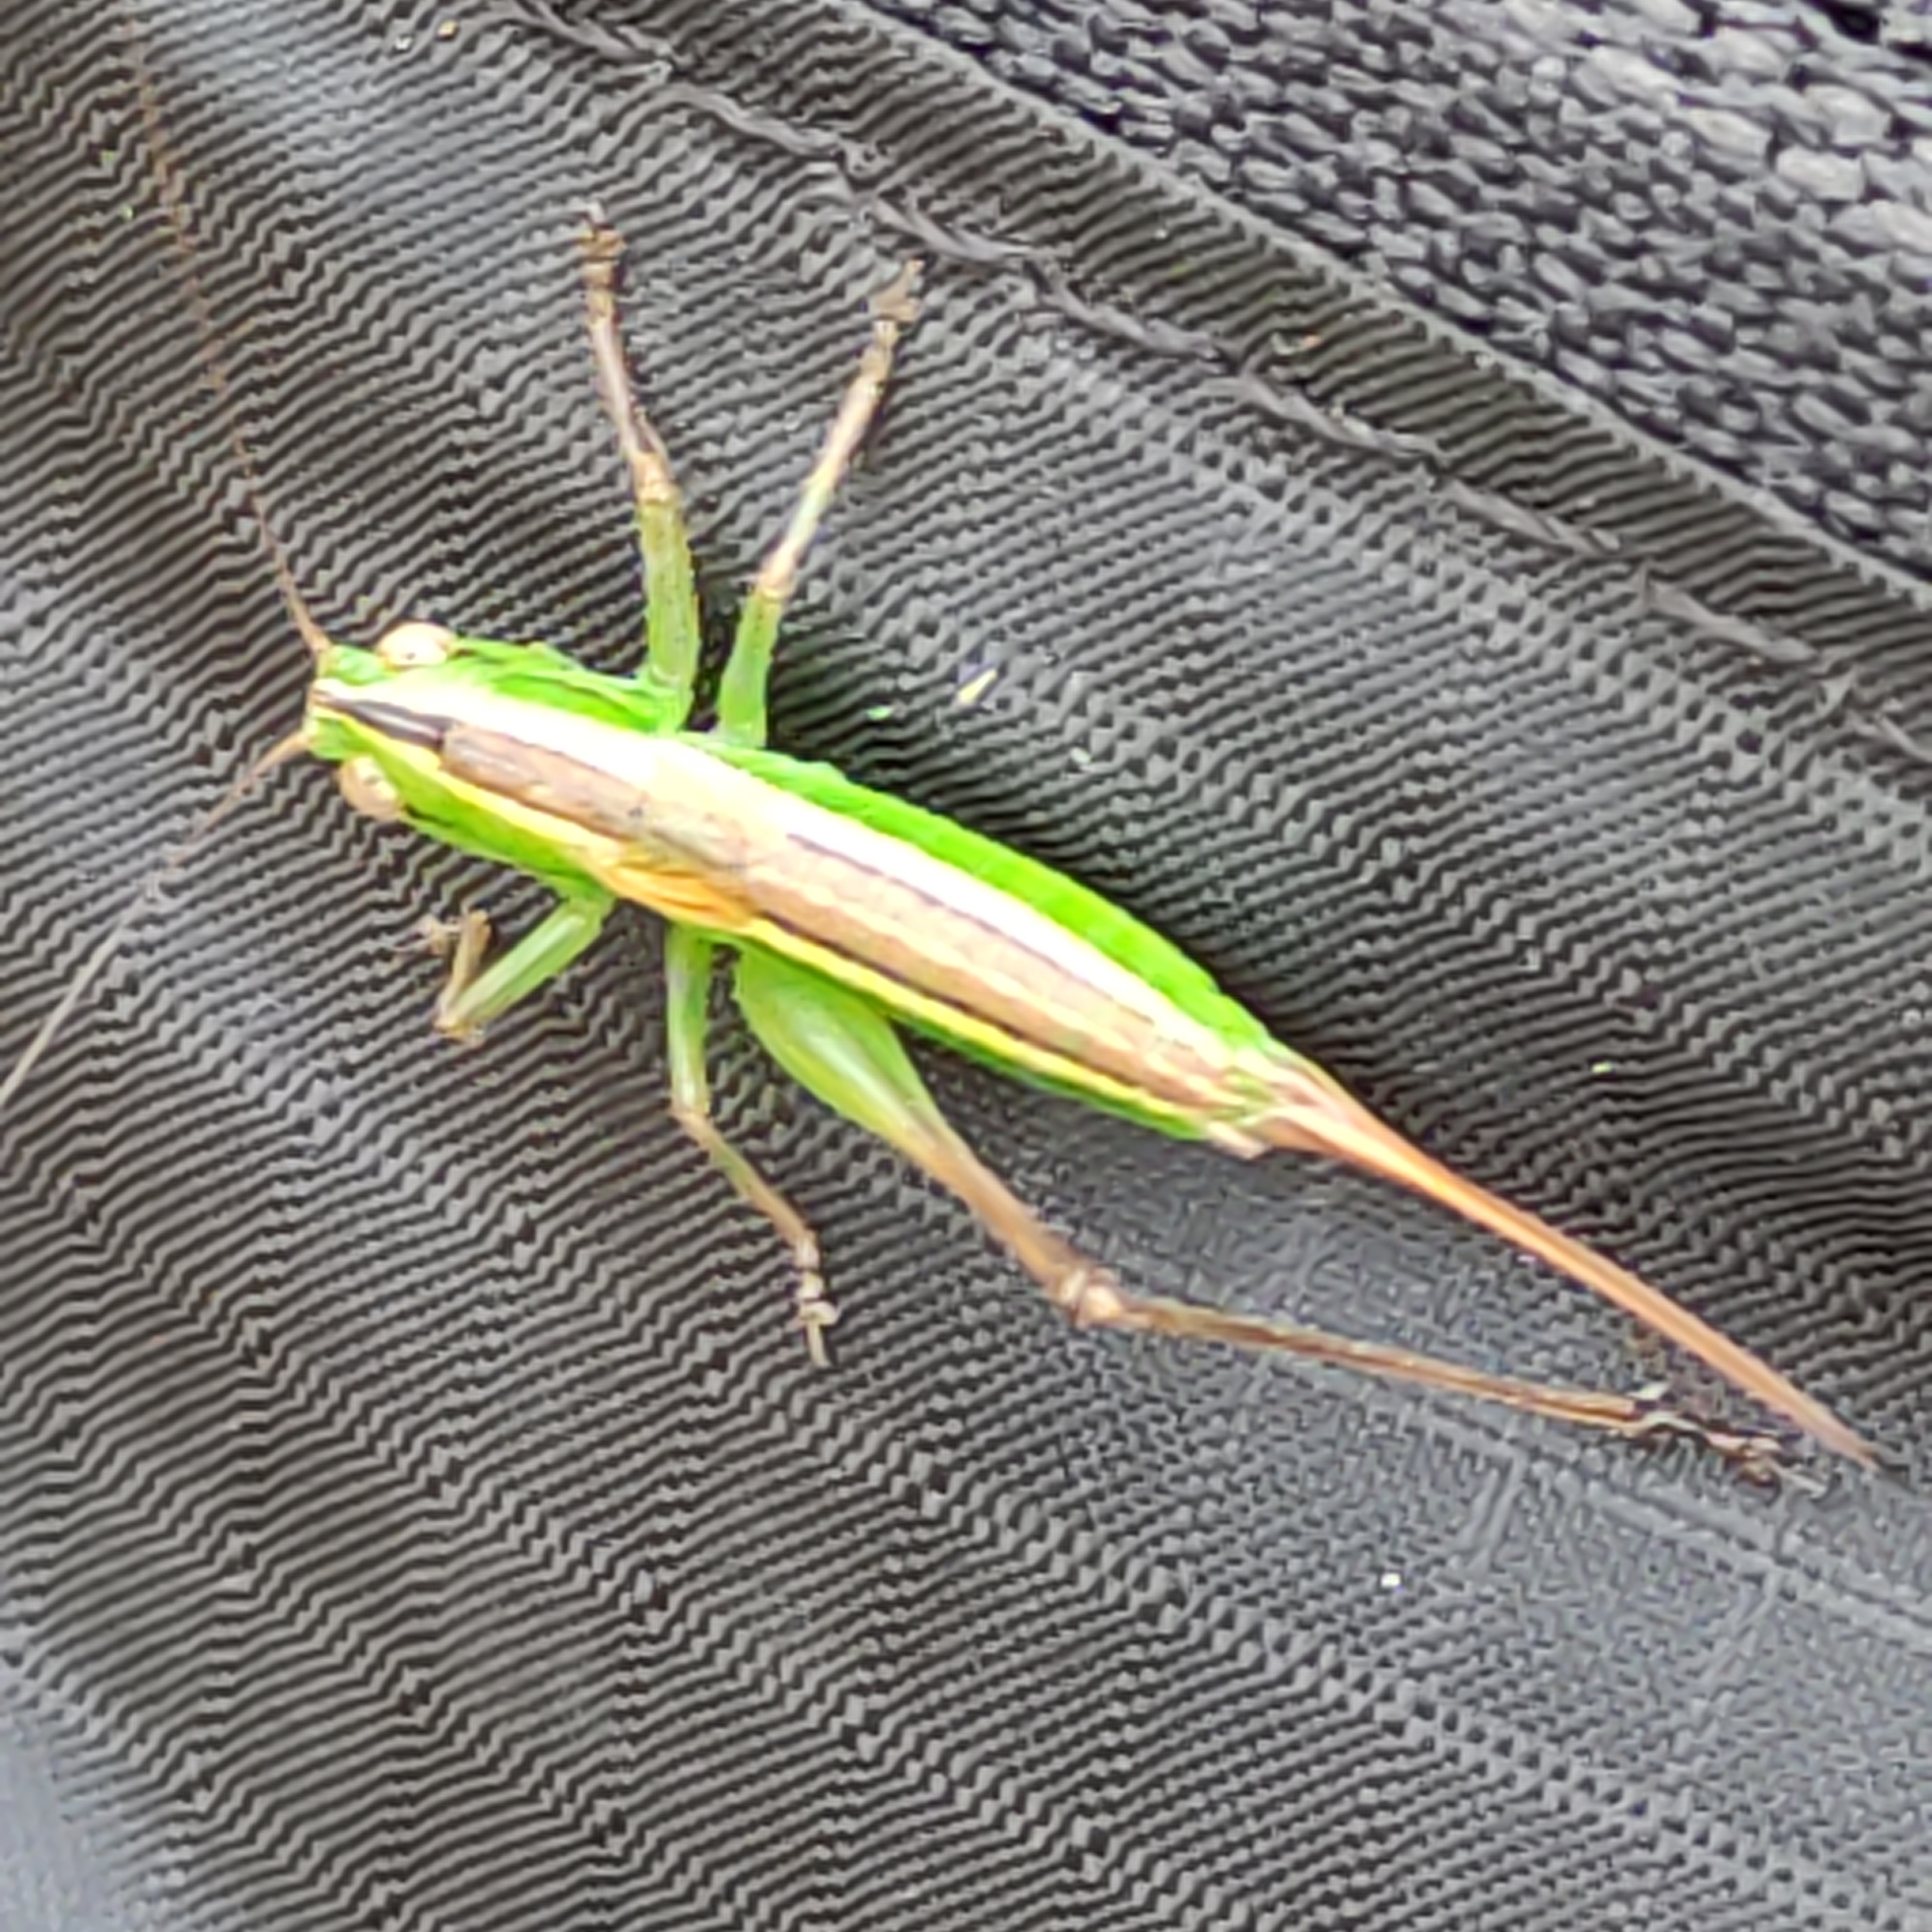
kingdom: Animalia
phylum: Arthropoda
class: Insecta
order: Orthoptera
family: Tettigoniidae
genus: Conocephalus
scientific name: Conocephalus bilineatus
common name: Small meadow katydid
